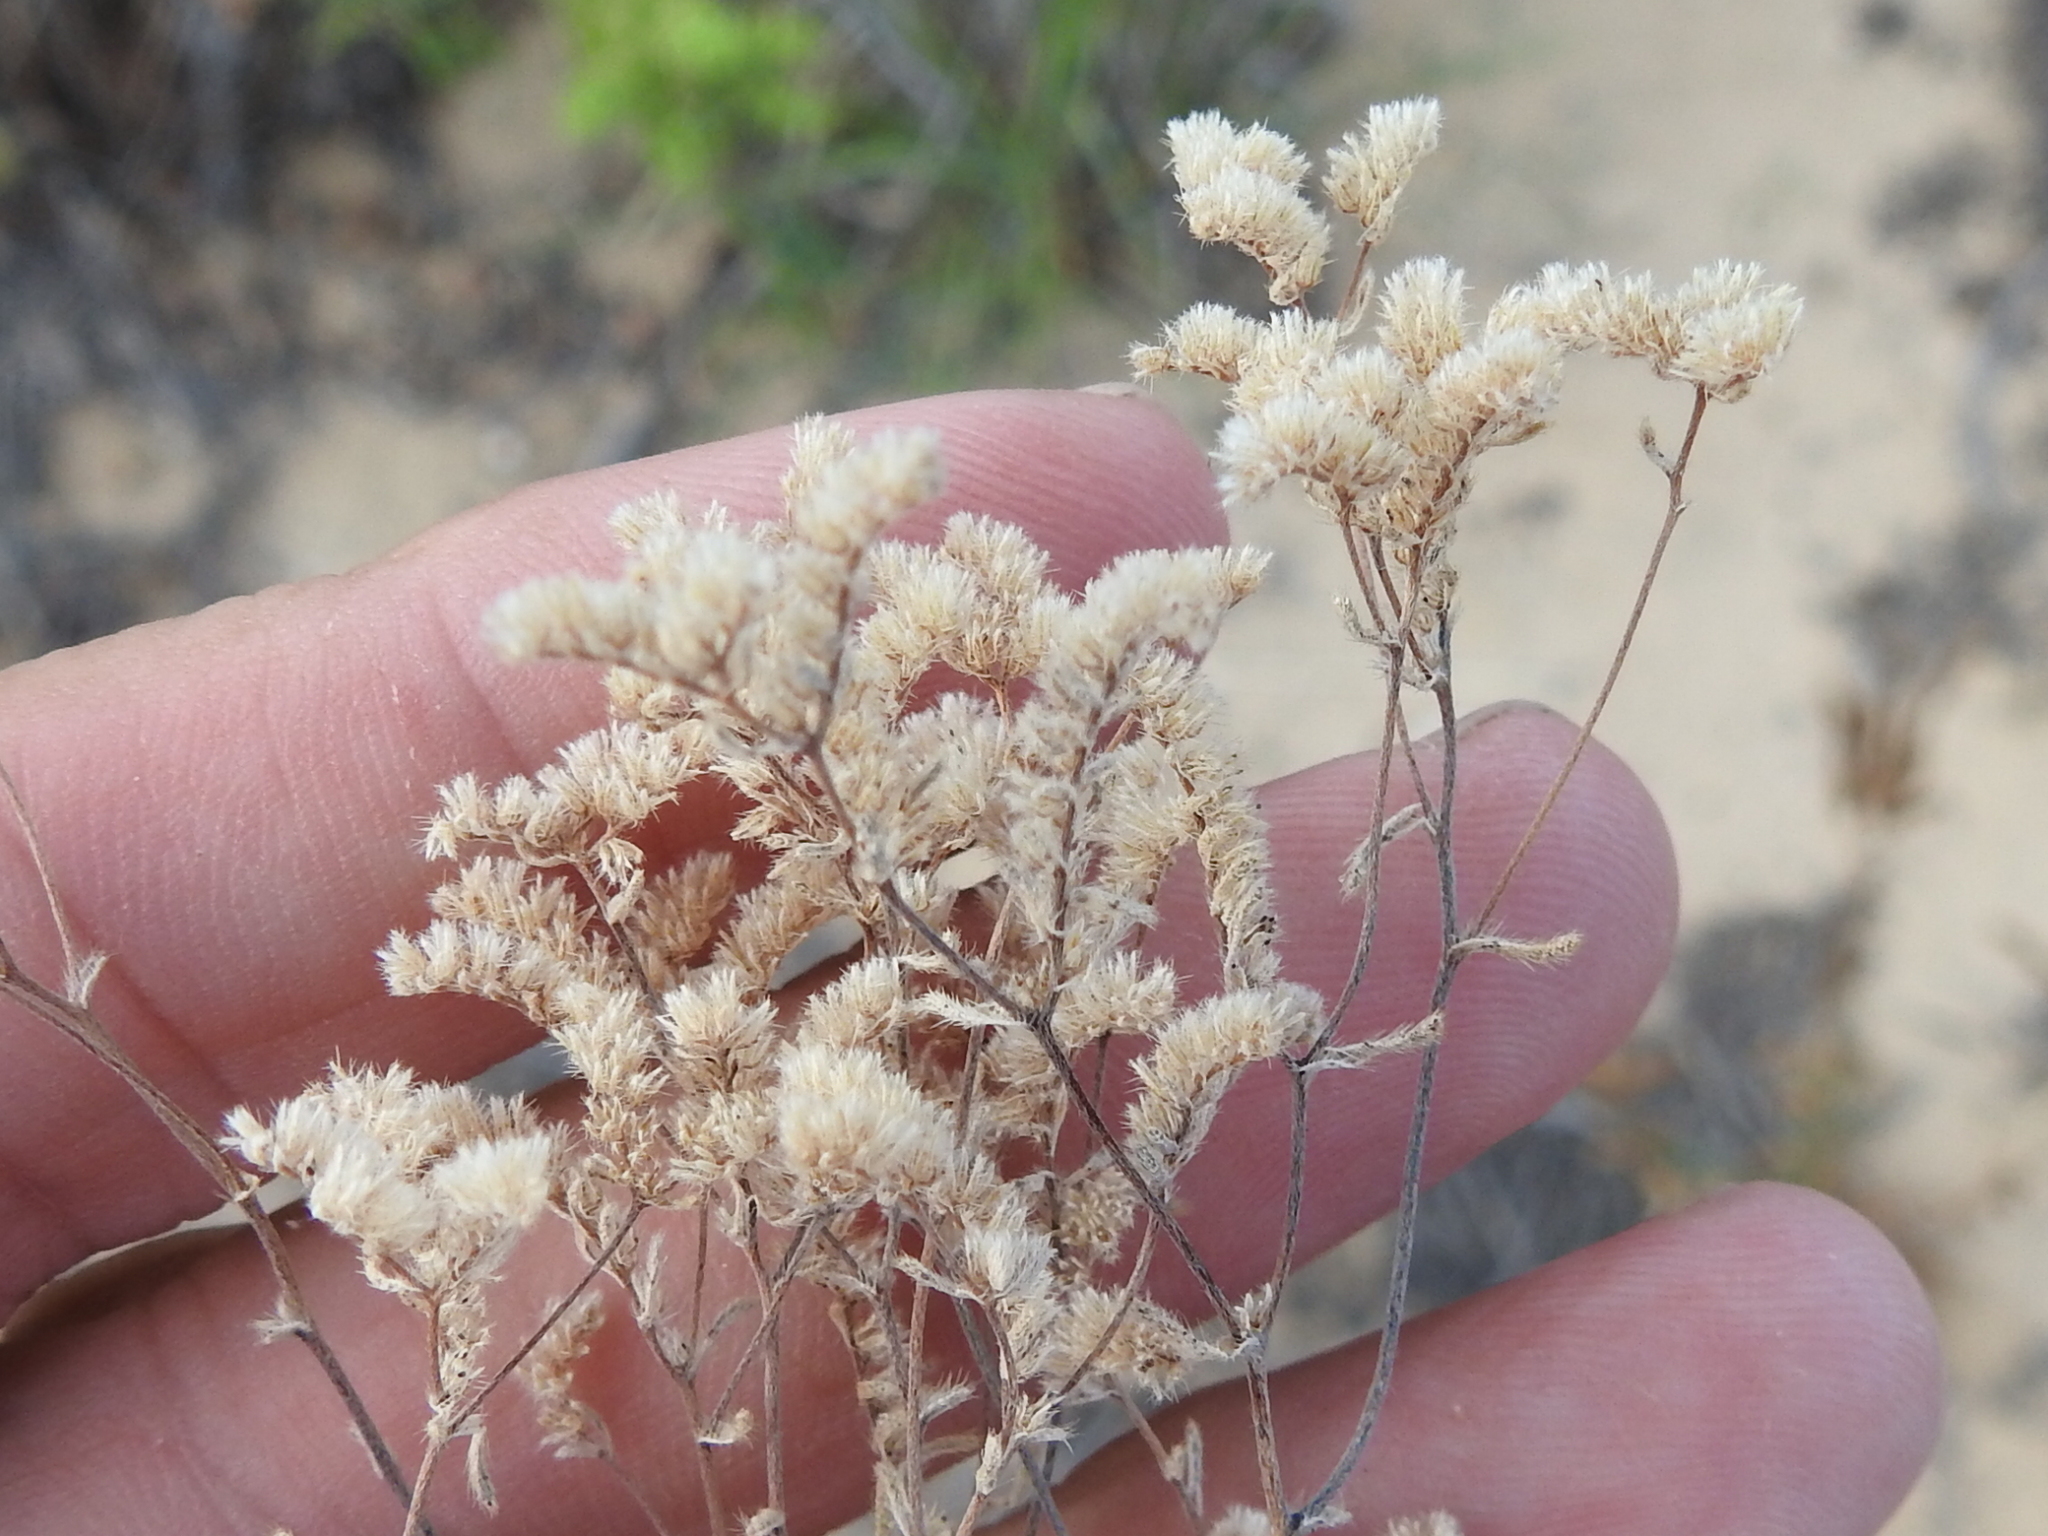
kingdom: Plantae
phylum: Tracheophyta
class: Magnoliopsida
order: Boraginales
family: Boraginaceae
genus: Eremocarya
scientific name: Eremocarya micrantha
